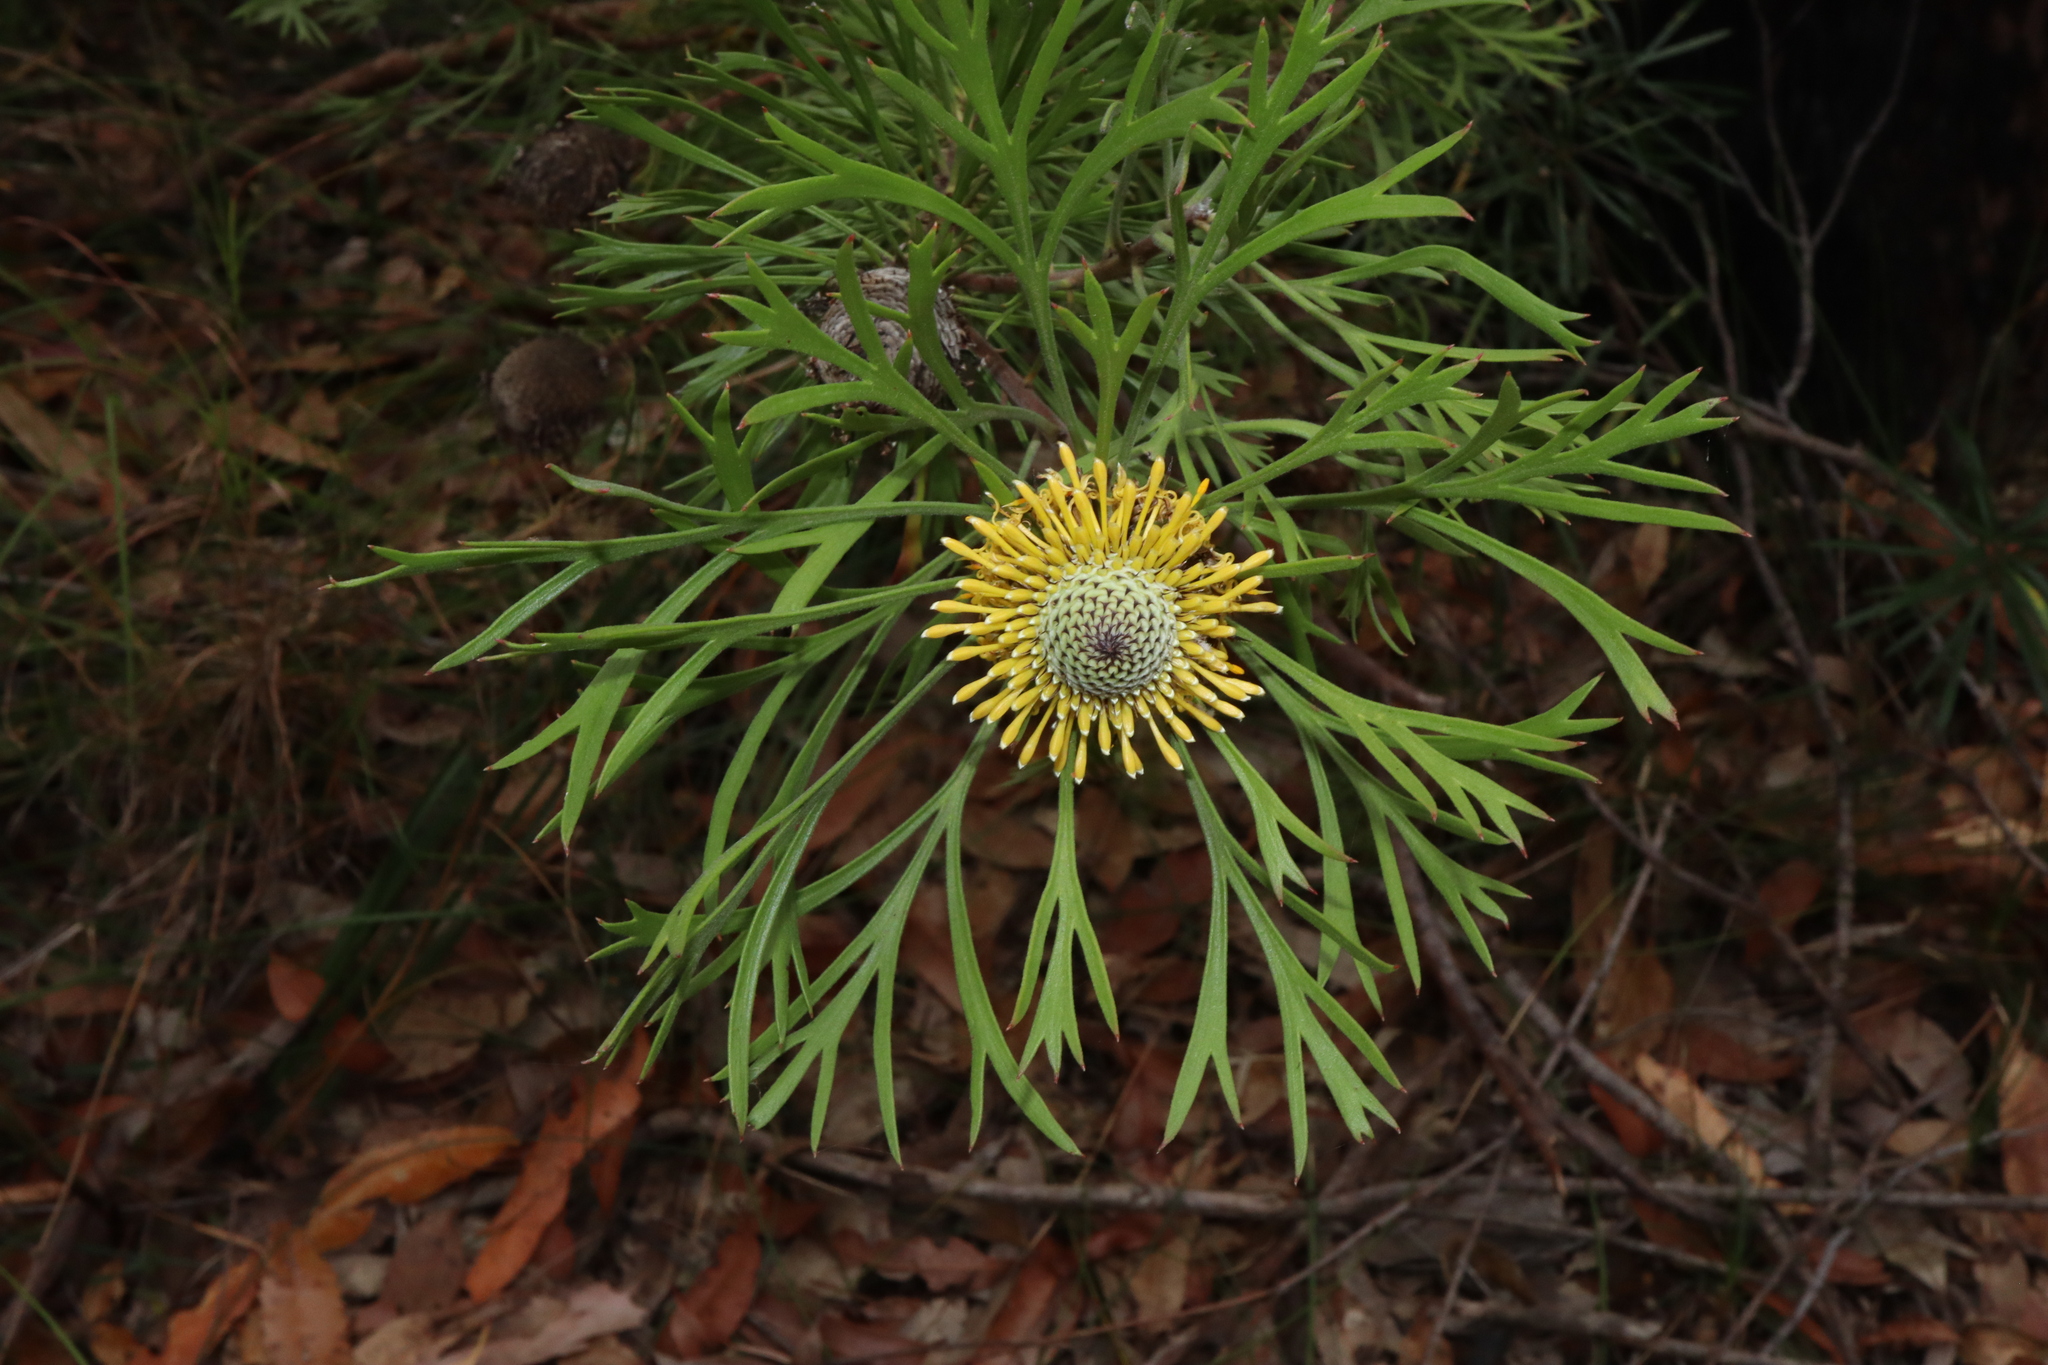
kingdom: Plantae
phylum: Tracheophyta
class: Magnoliopsida
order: Proteales
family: Proteaceae
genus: Isopogon
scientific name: Isopogon anemonifolius
